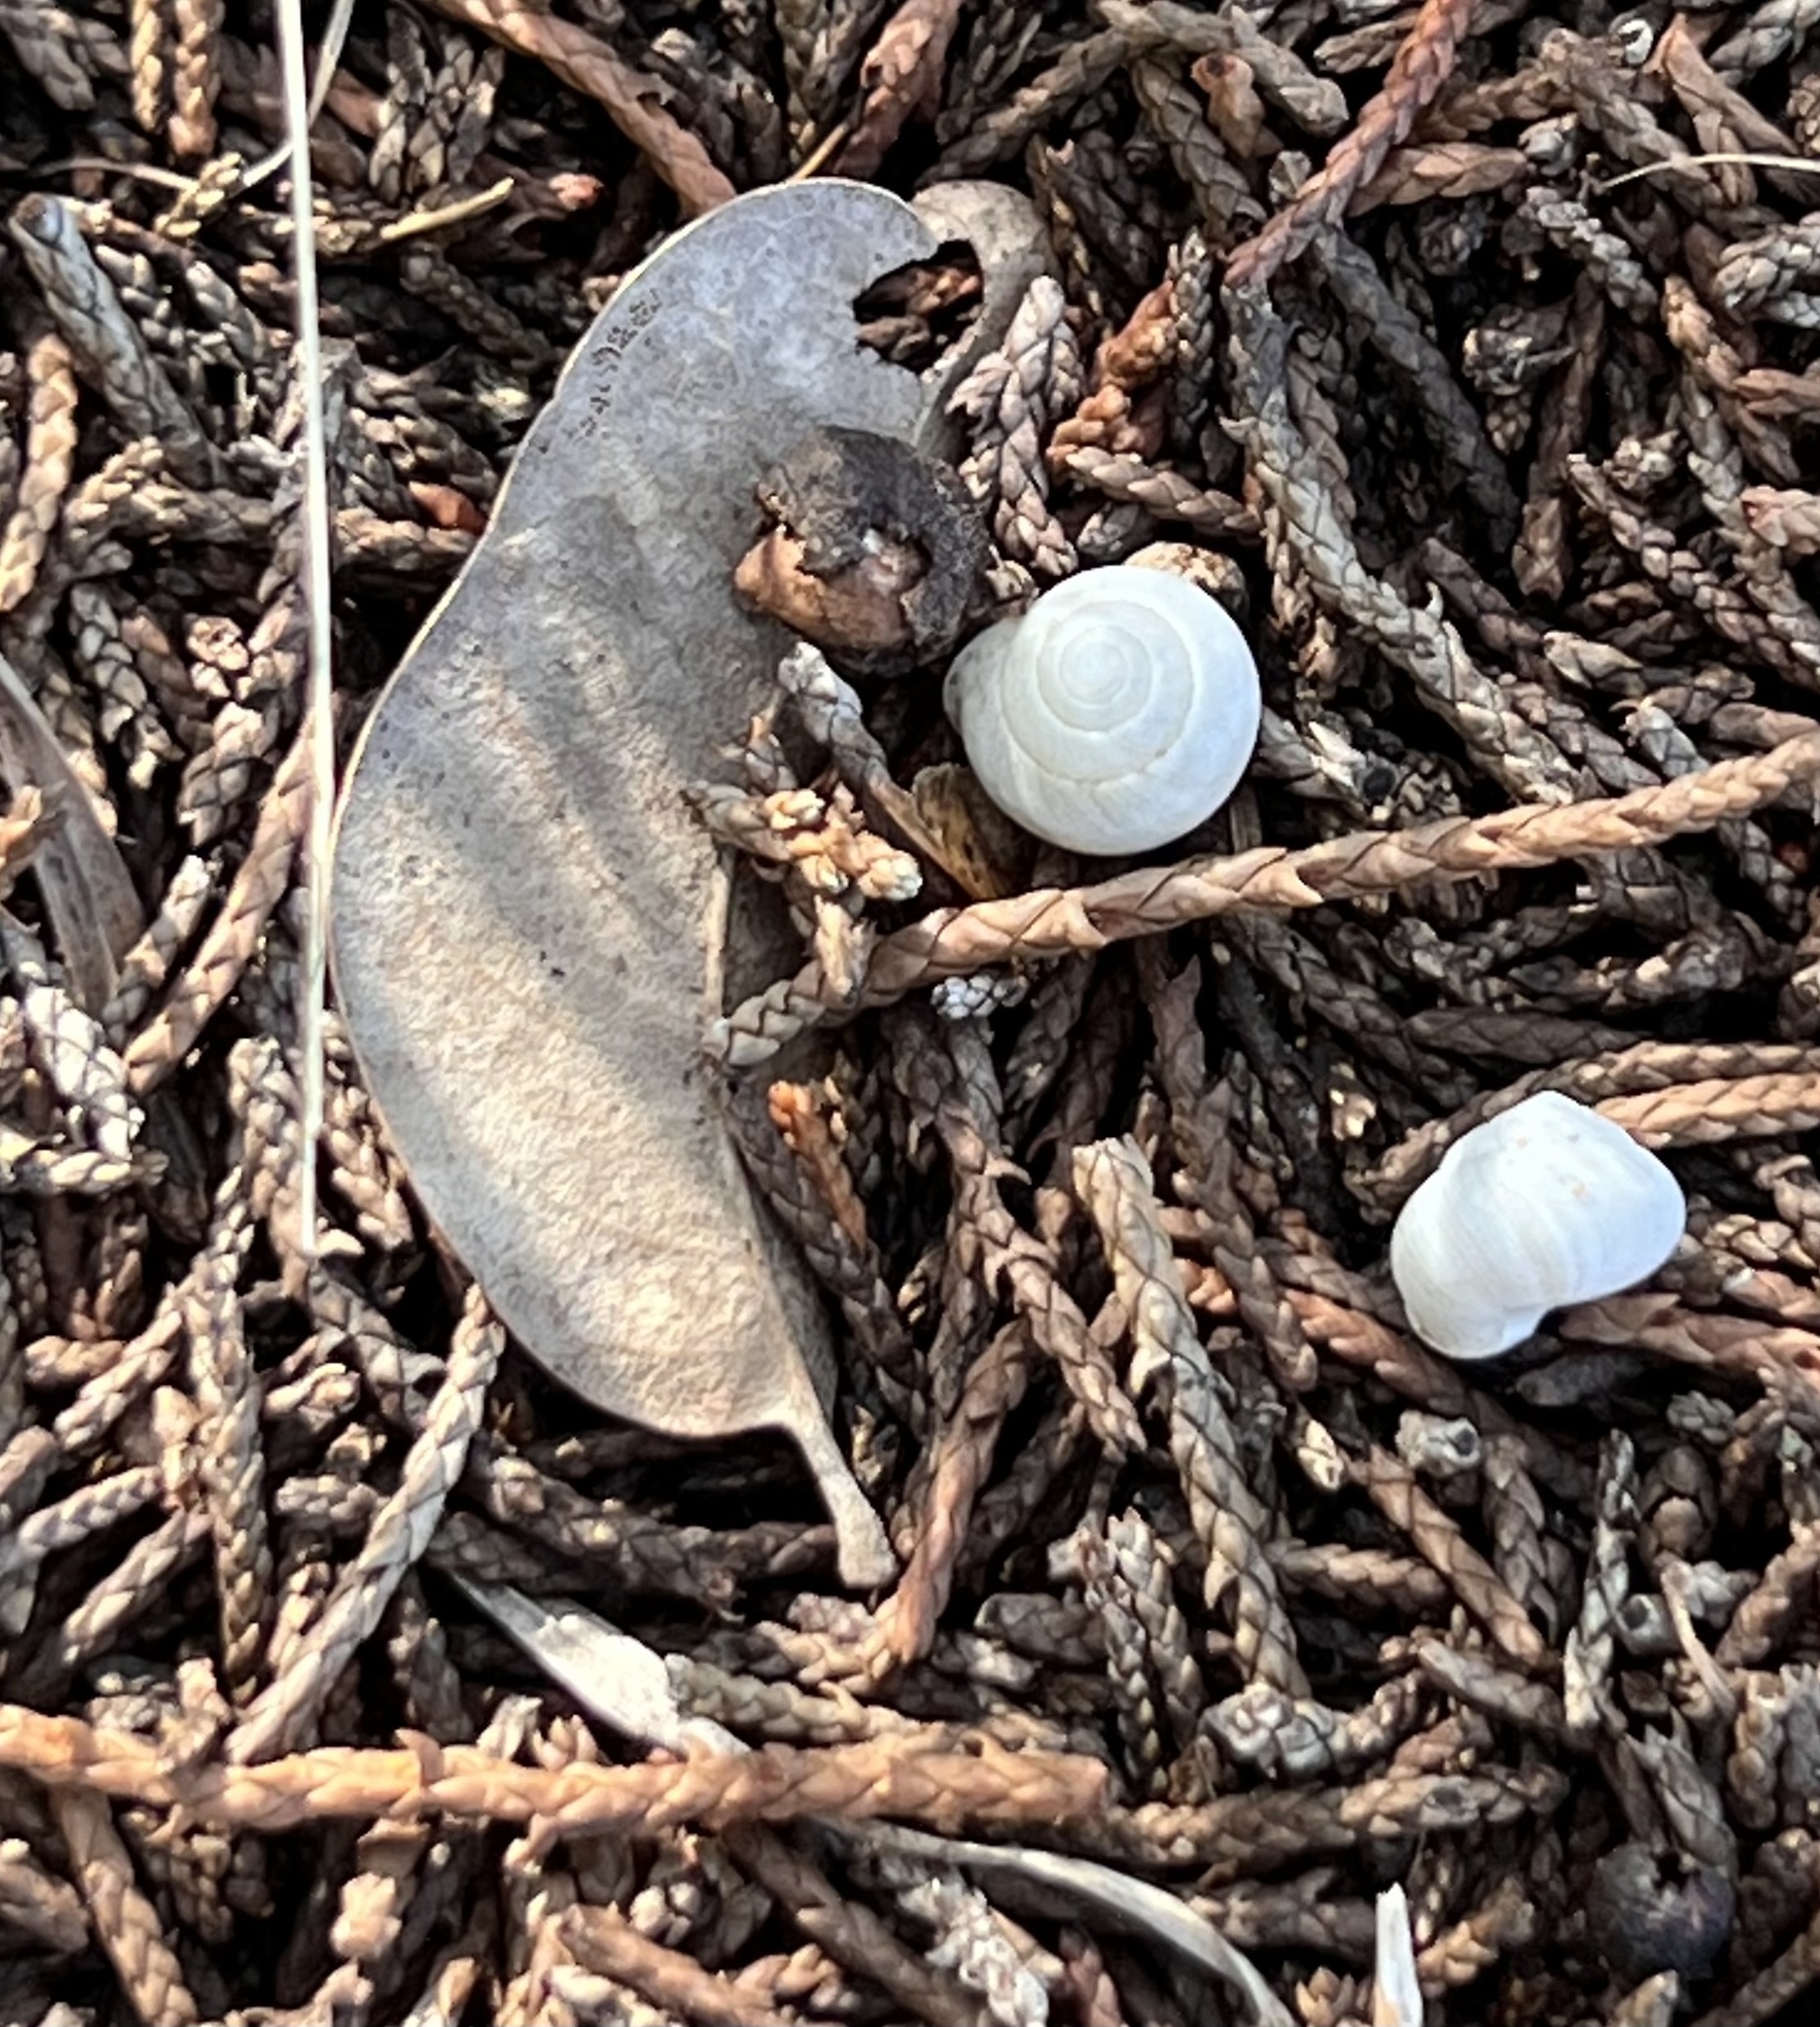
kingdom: Animalia
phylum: Mollusca
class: Gastropoda
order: Cycloneritida
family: Helicinidae
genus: Helicina
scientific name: Helicina orbiculata
